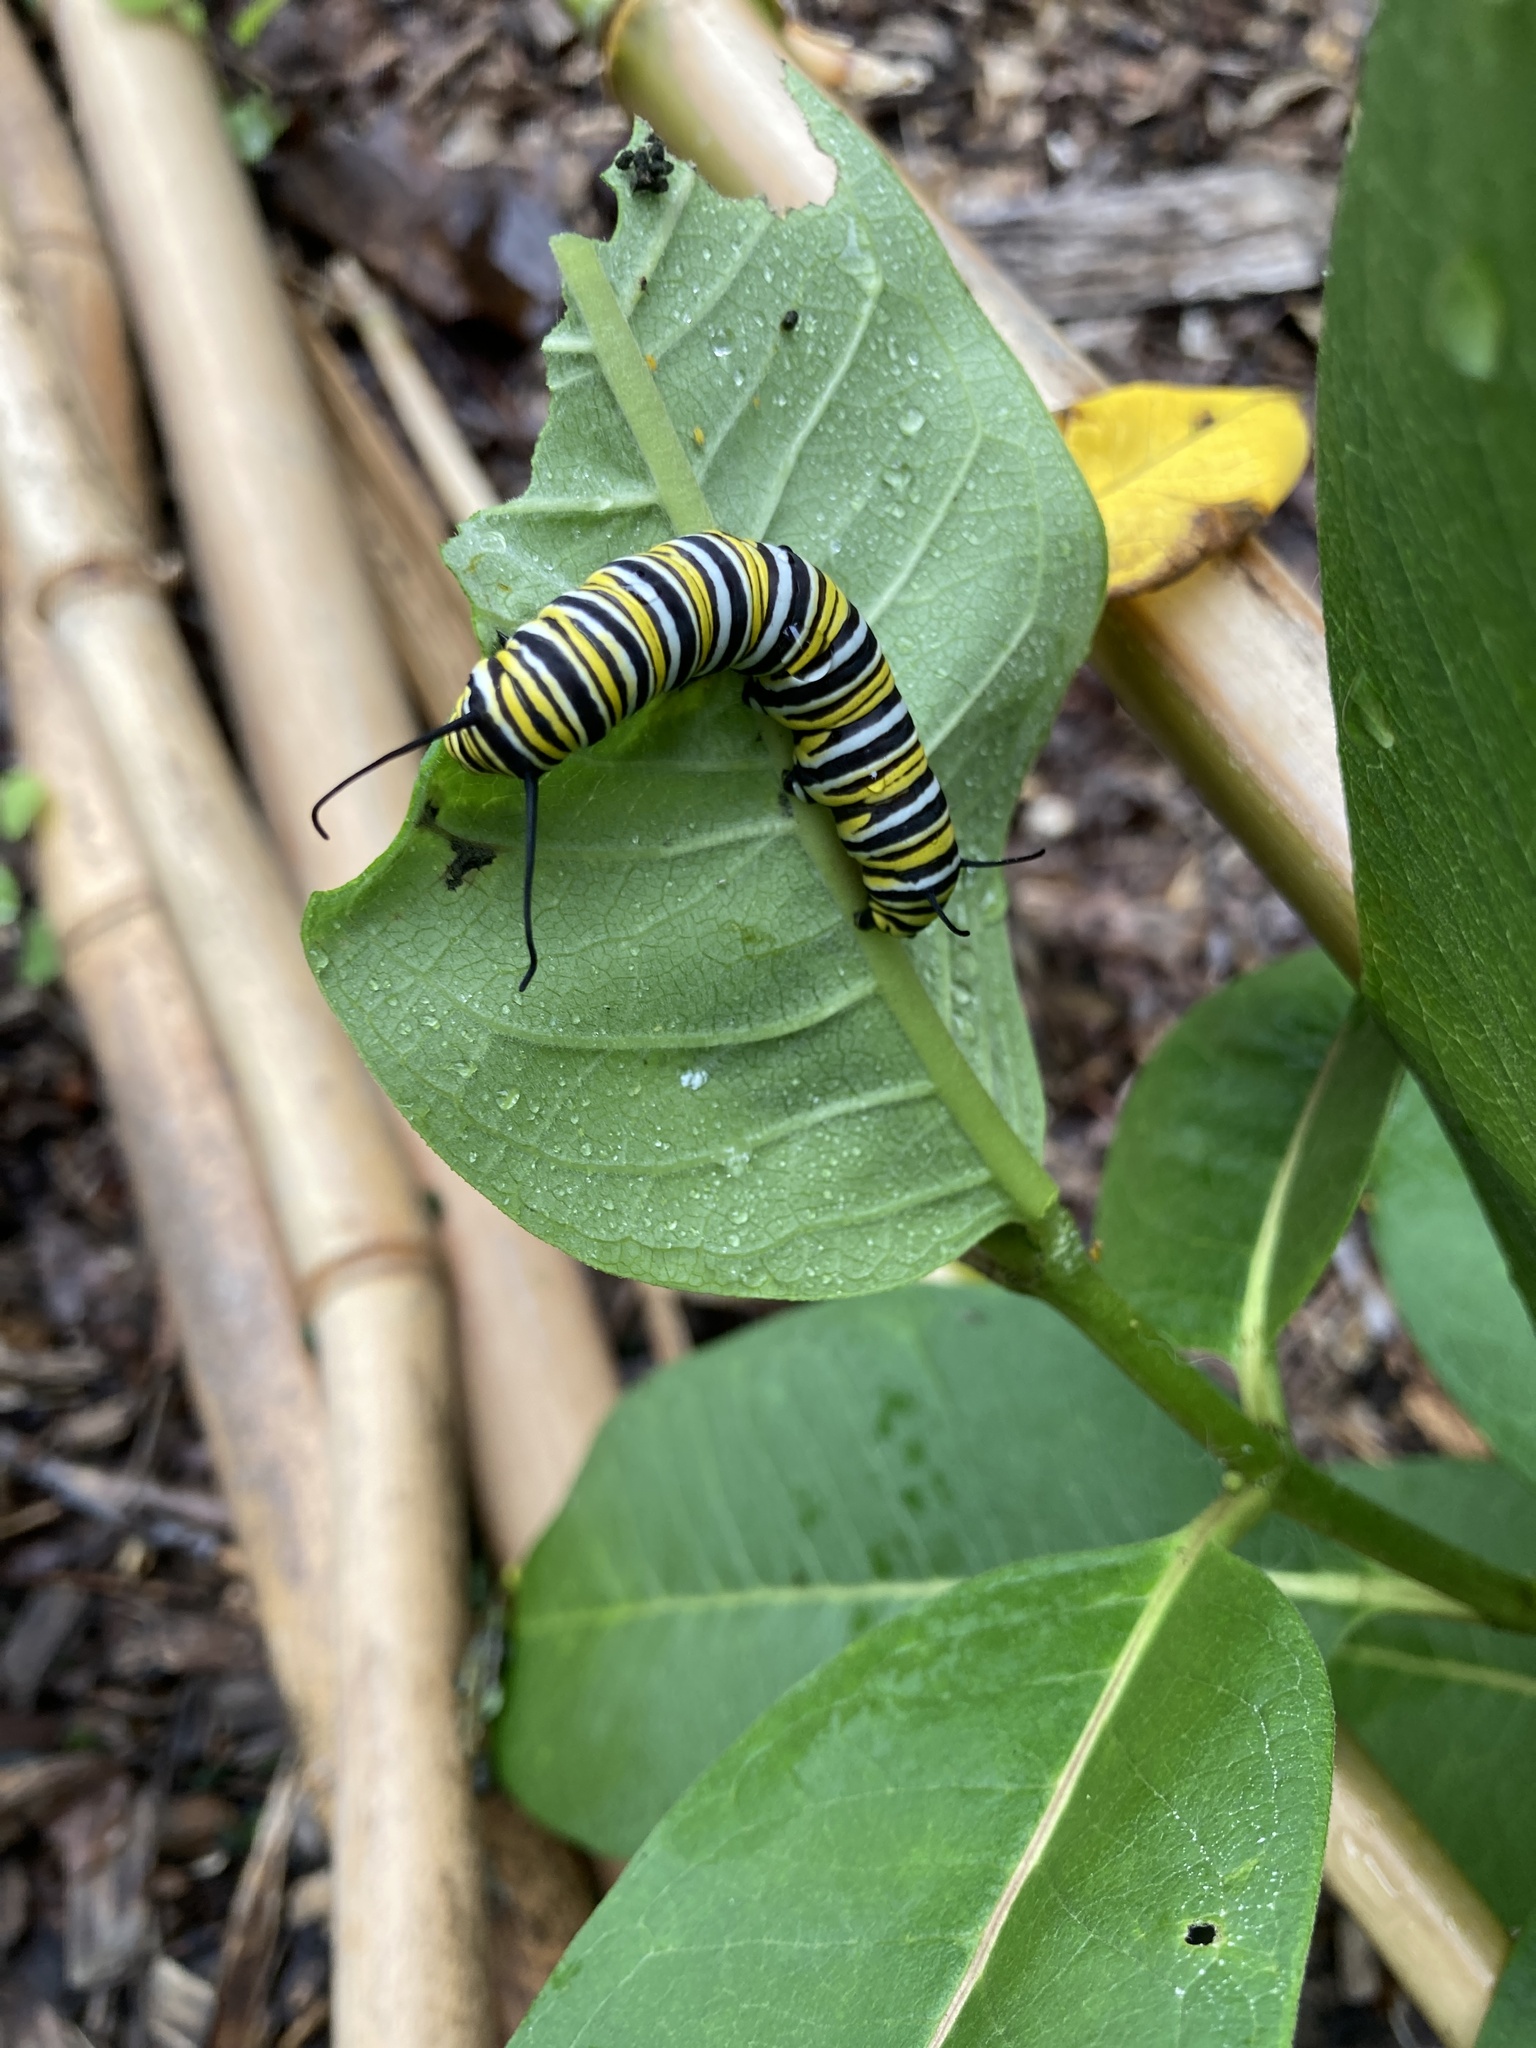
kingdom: Animalia
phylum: Arthropoda
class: Insecta
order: Lepidoptera
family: Nymphalidae
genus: Danaus
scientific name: Danaus plexippus
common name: Monarch
